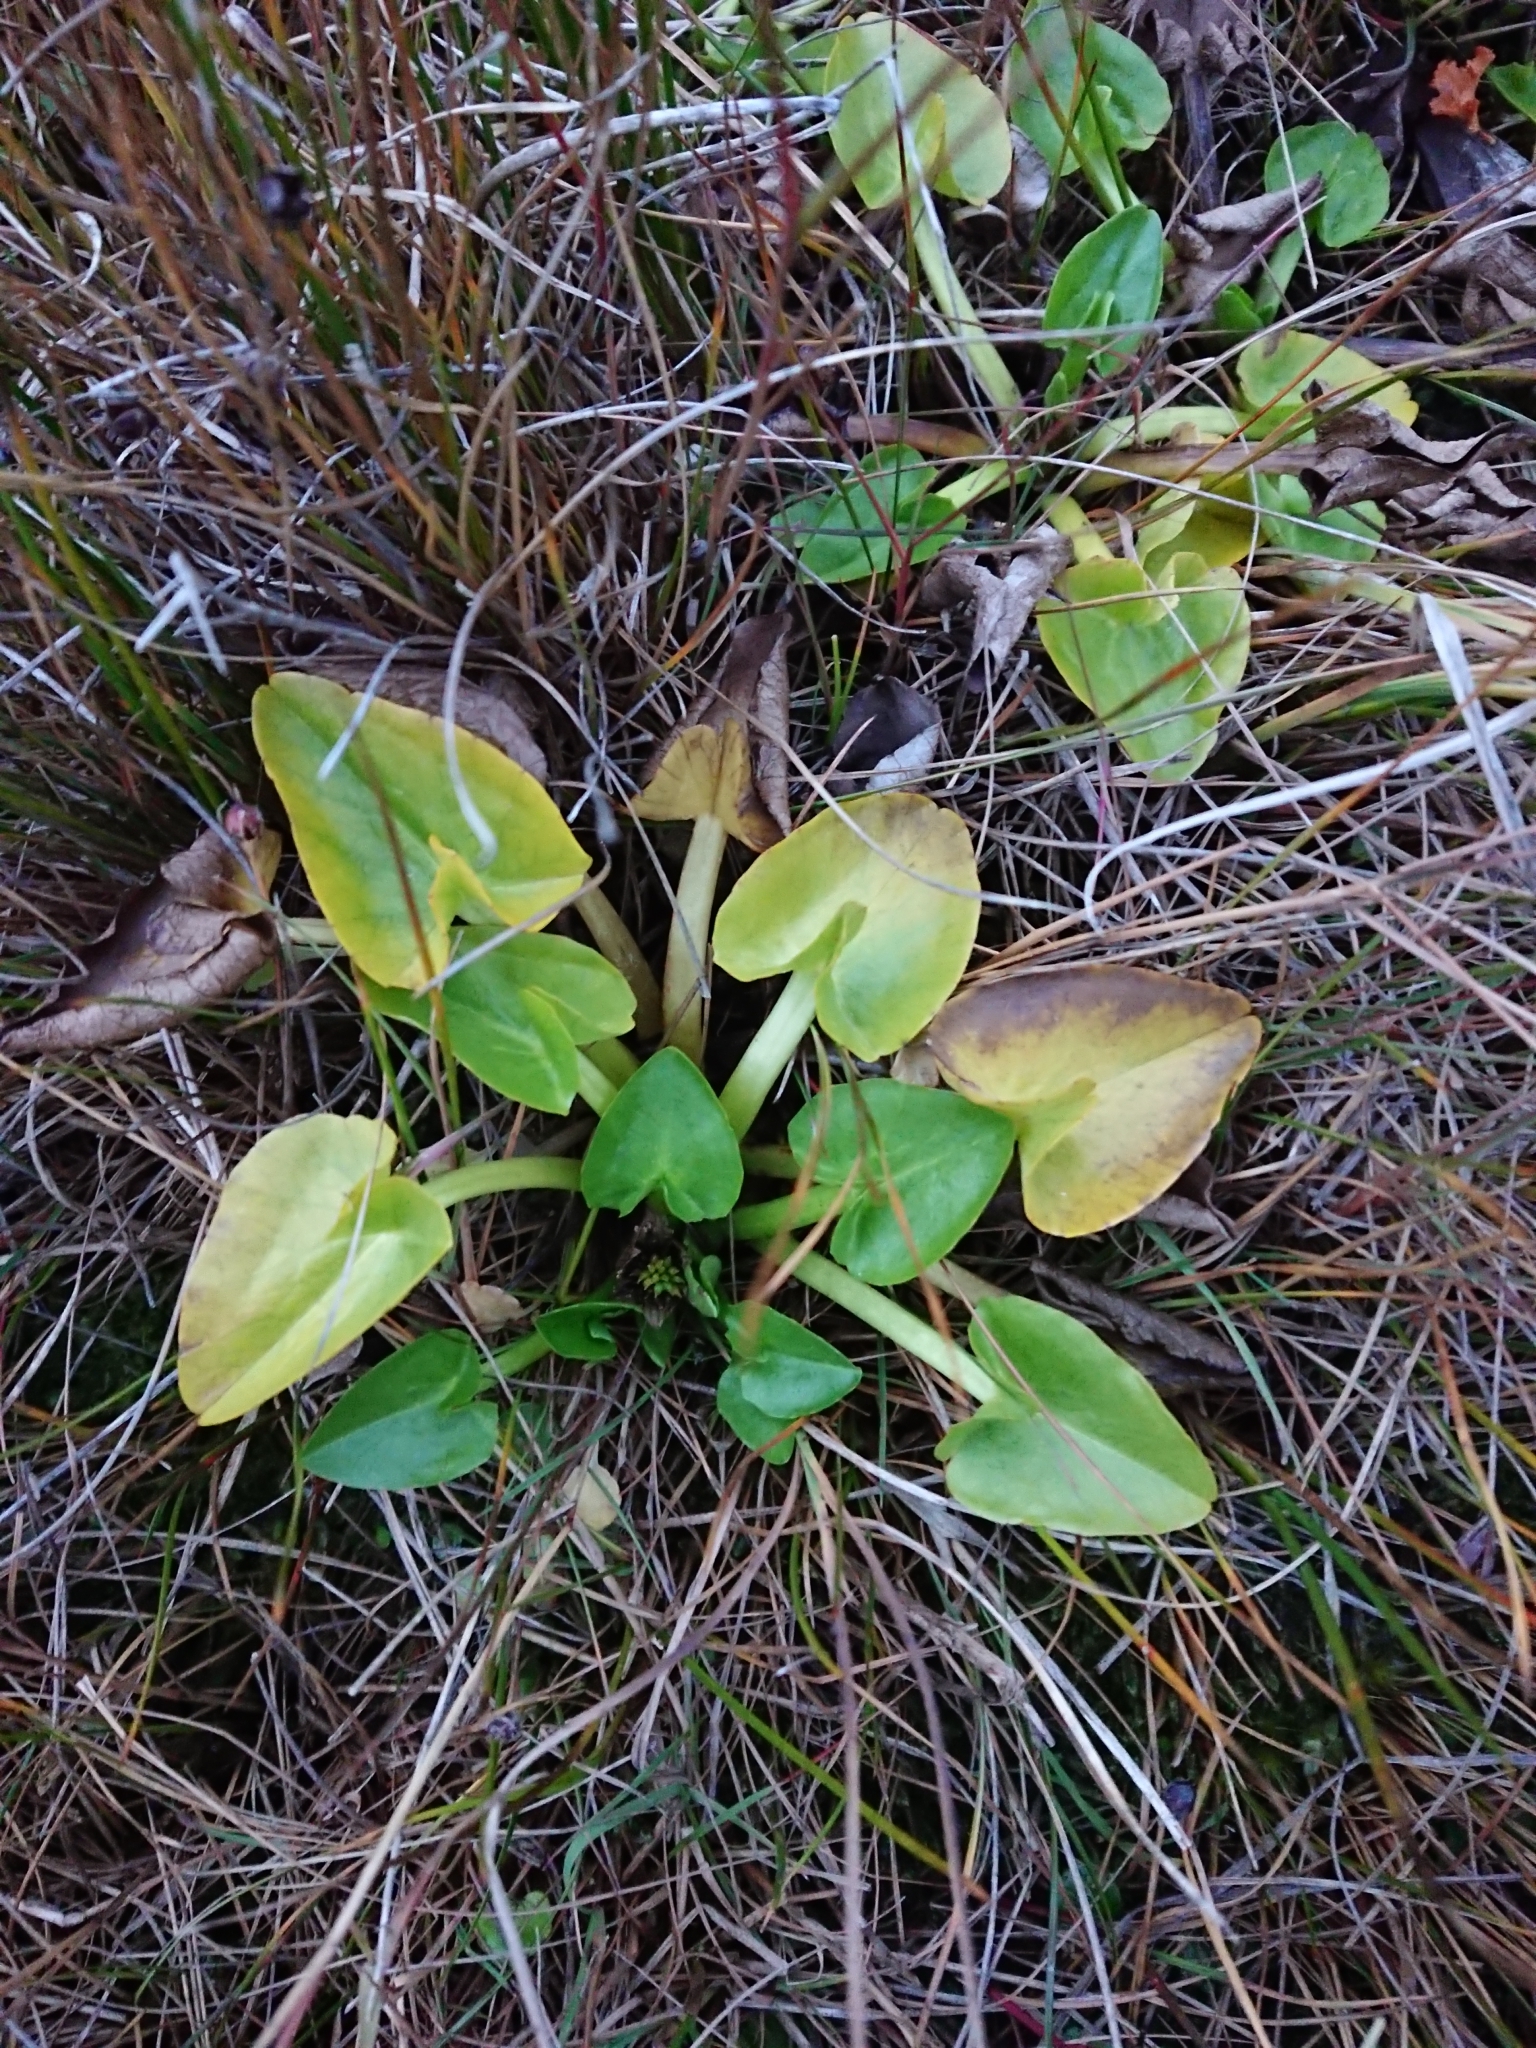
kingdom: Plantae
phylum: Tracheophyta
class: Magnoliopsida
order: Ranunculales
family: Ranunculaceae
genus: Caltha
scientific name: Caltha sagittata
